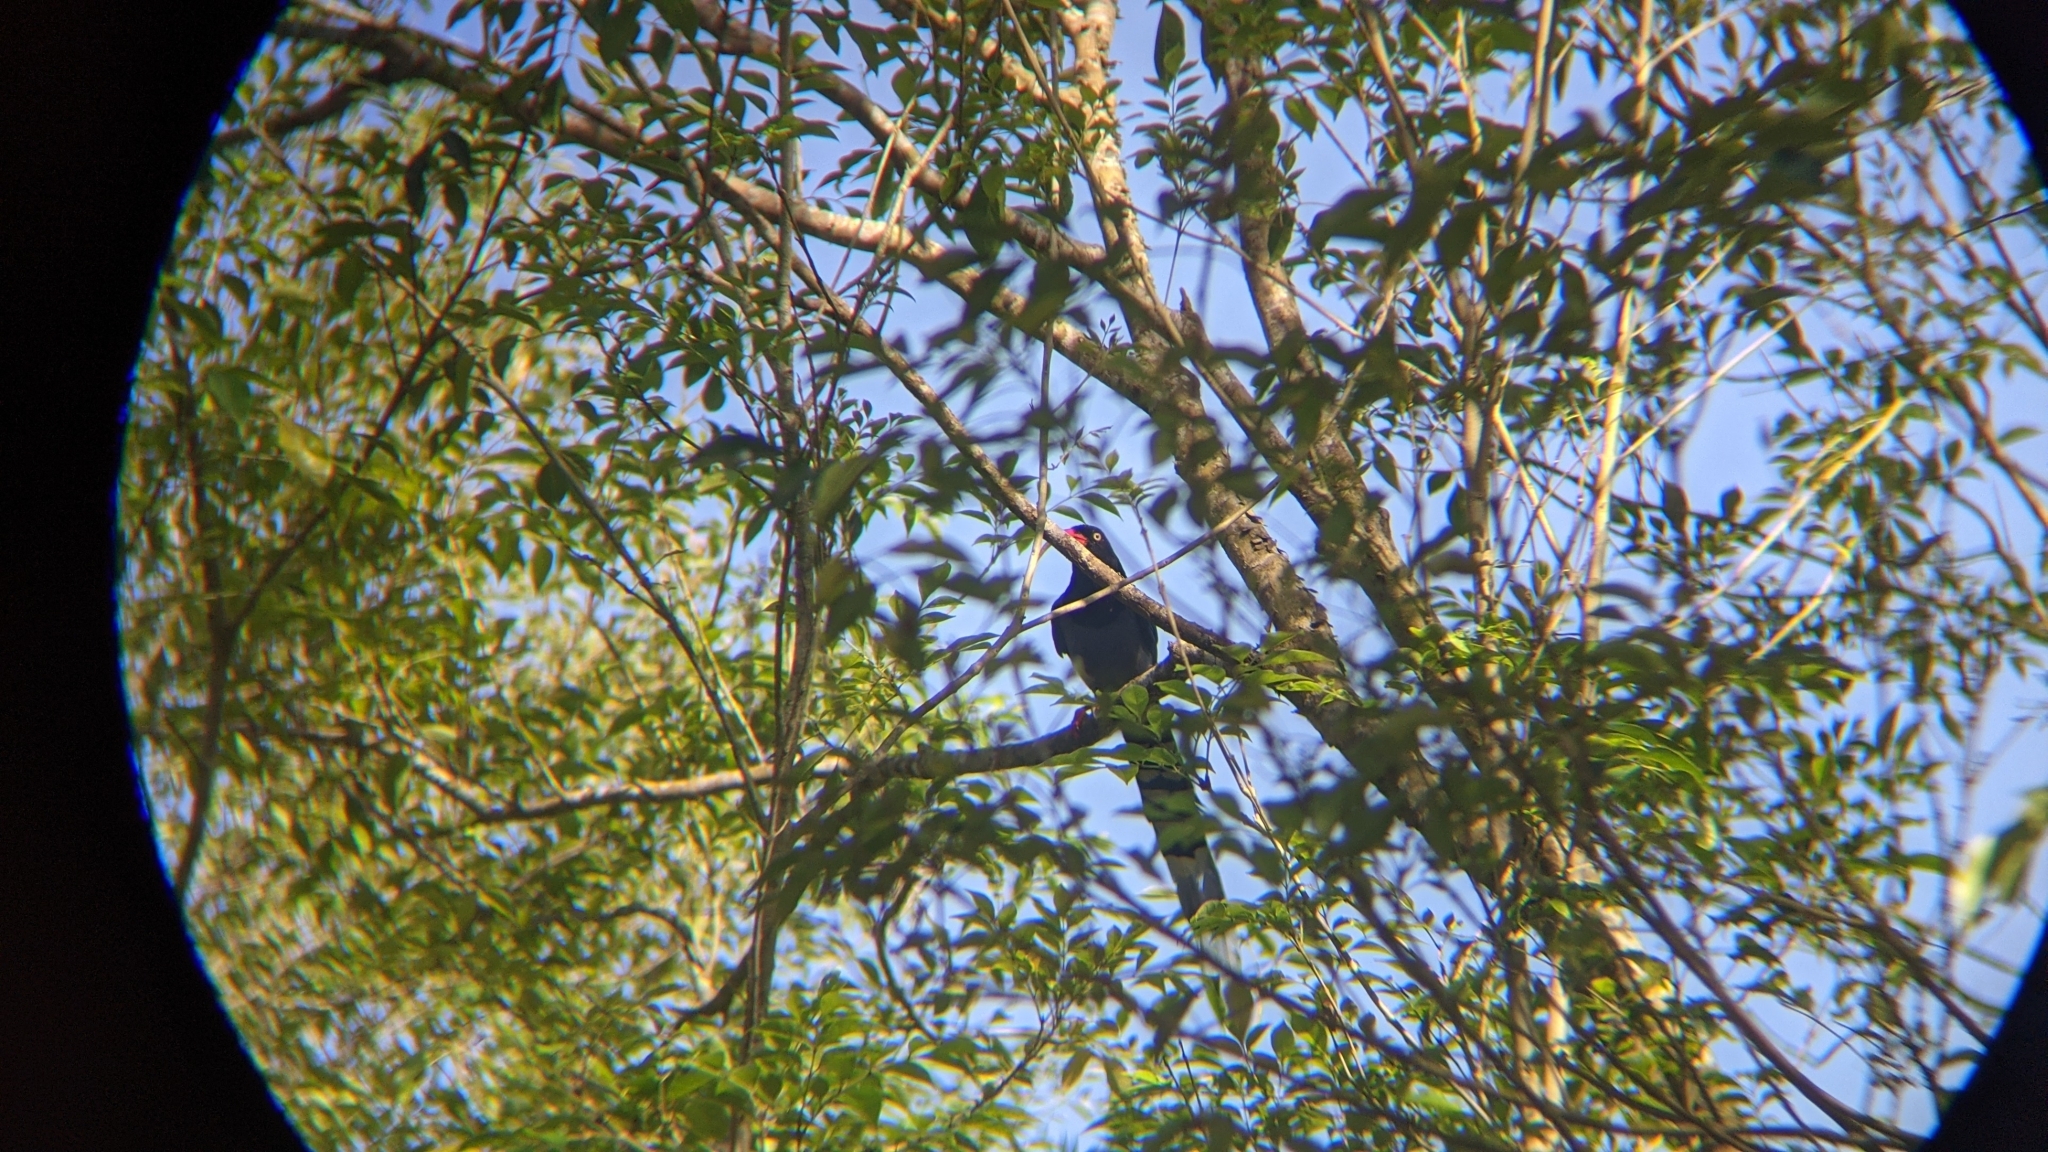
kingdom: Animalia
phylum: Chordata
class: Aves
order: Passeriformes
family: Corvidae
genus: Urocissa
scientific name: Urocissa caerulea
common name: Taiwan blue magpie
